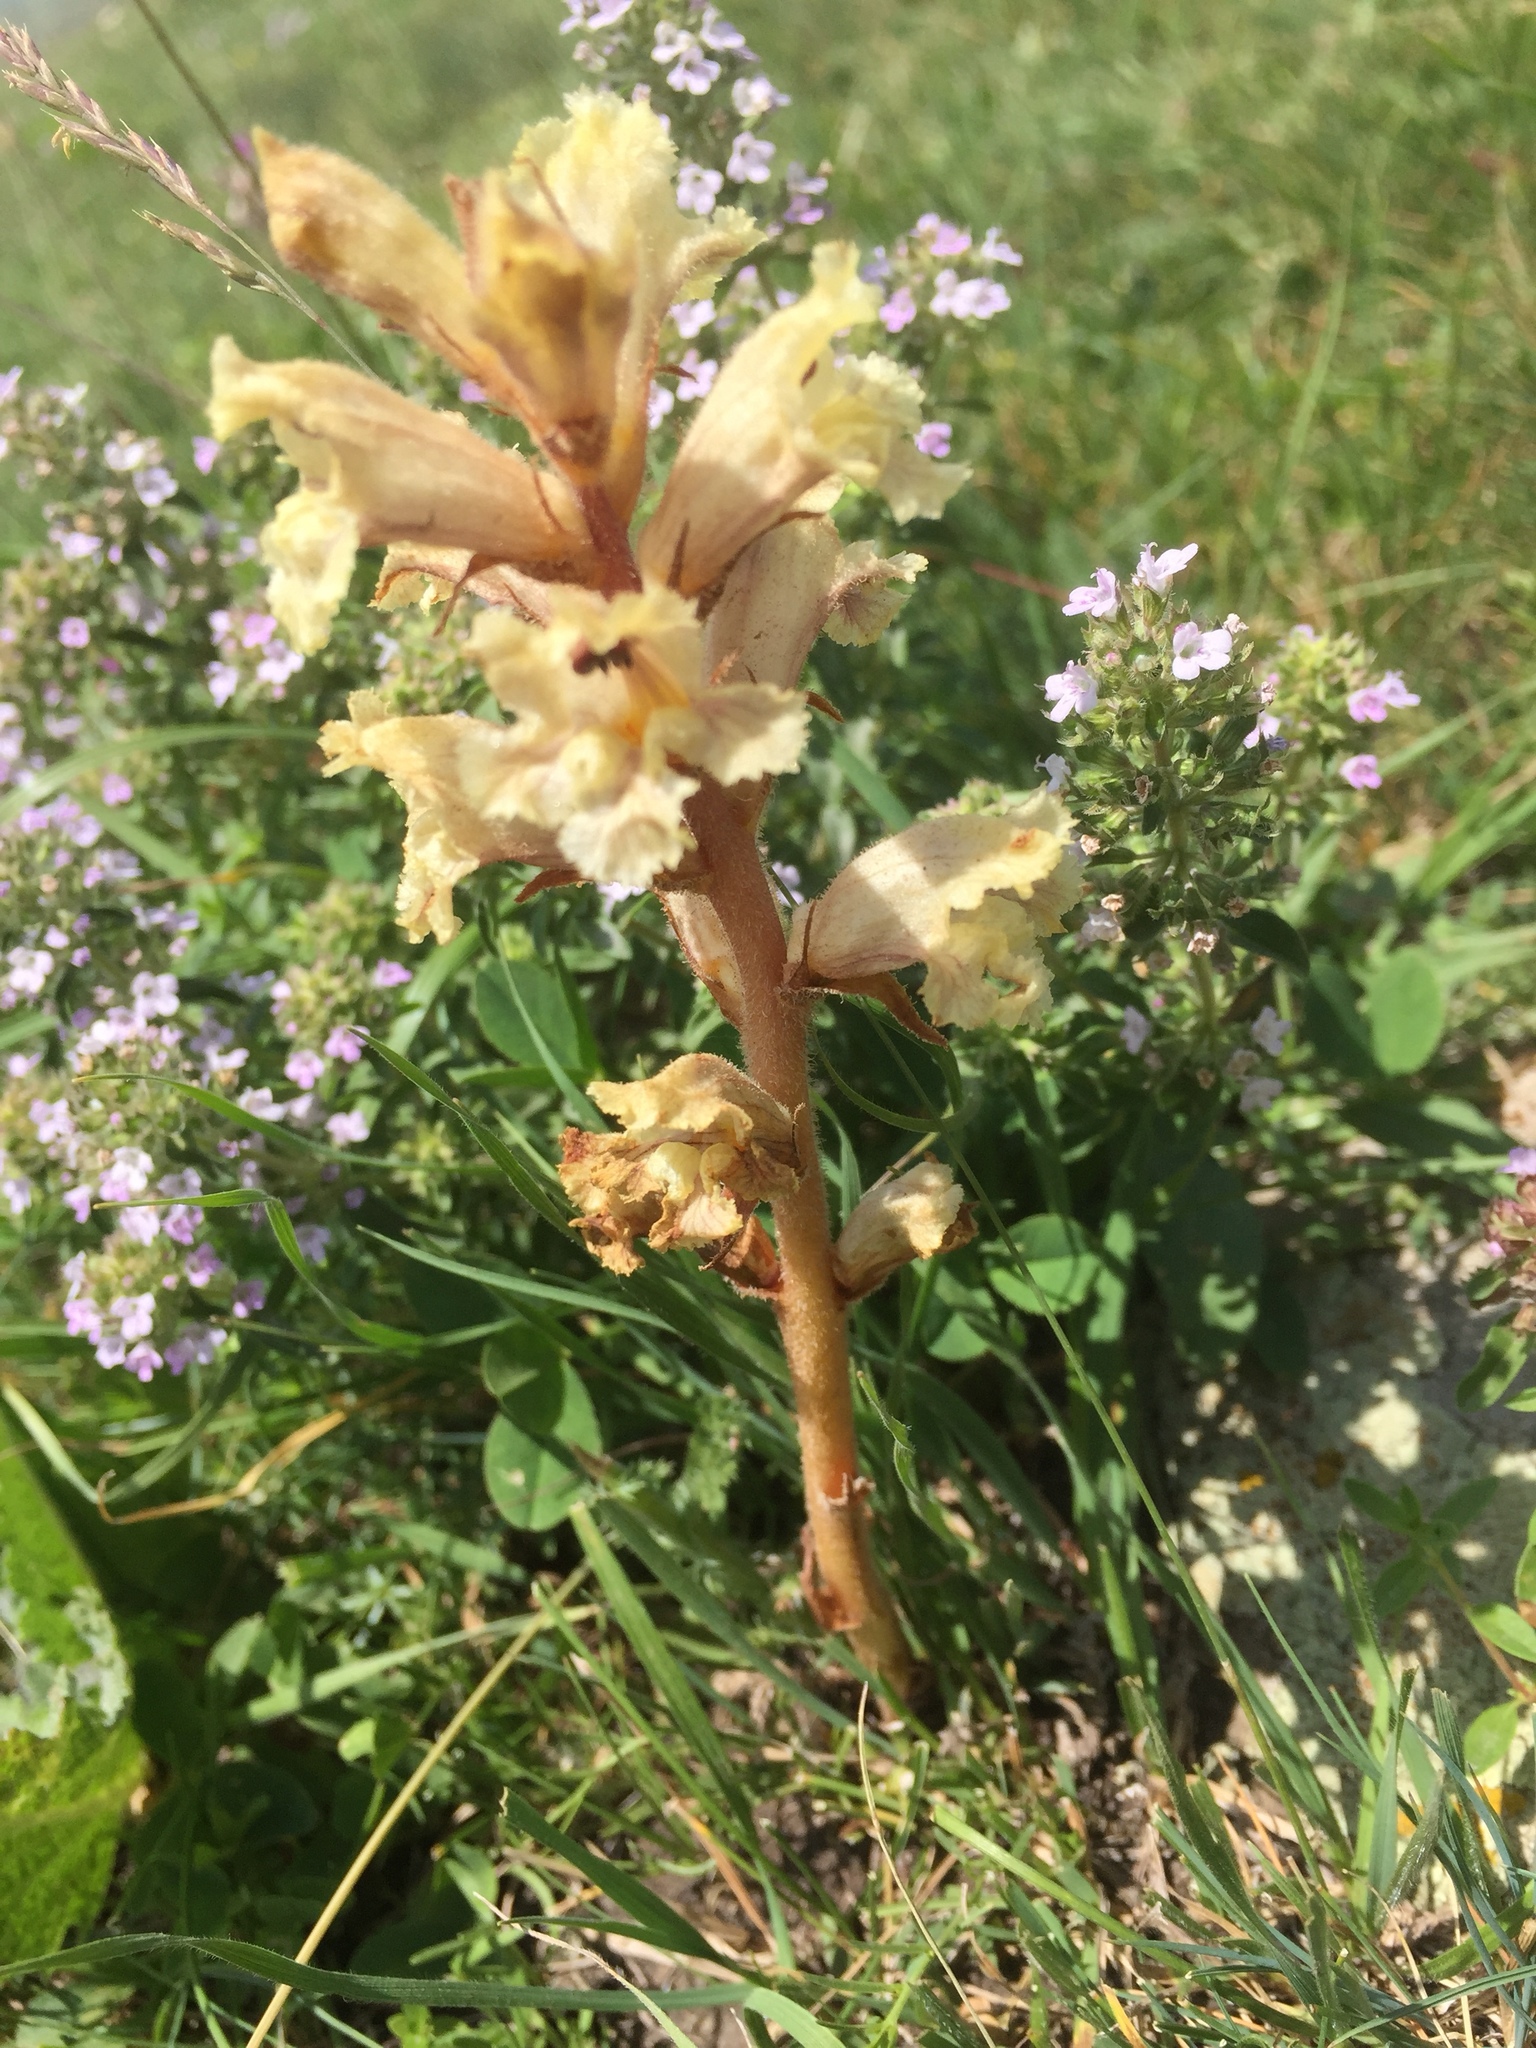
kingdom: Plantae
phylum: Tracheophyta
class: Magnoliopsida
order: Lamiales
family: Orobanchaceae
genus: Orobanche
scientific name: Orobanche alba
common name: Thyme broomrape
